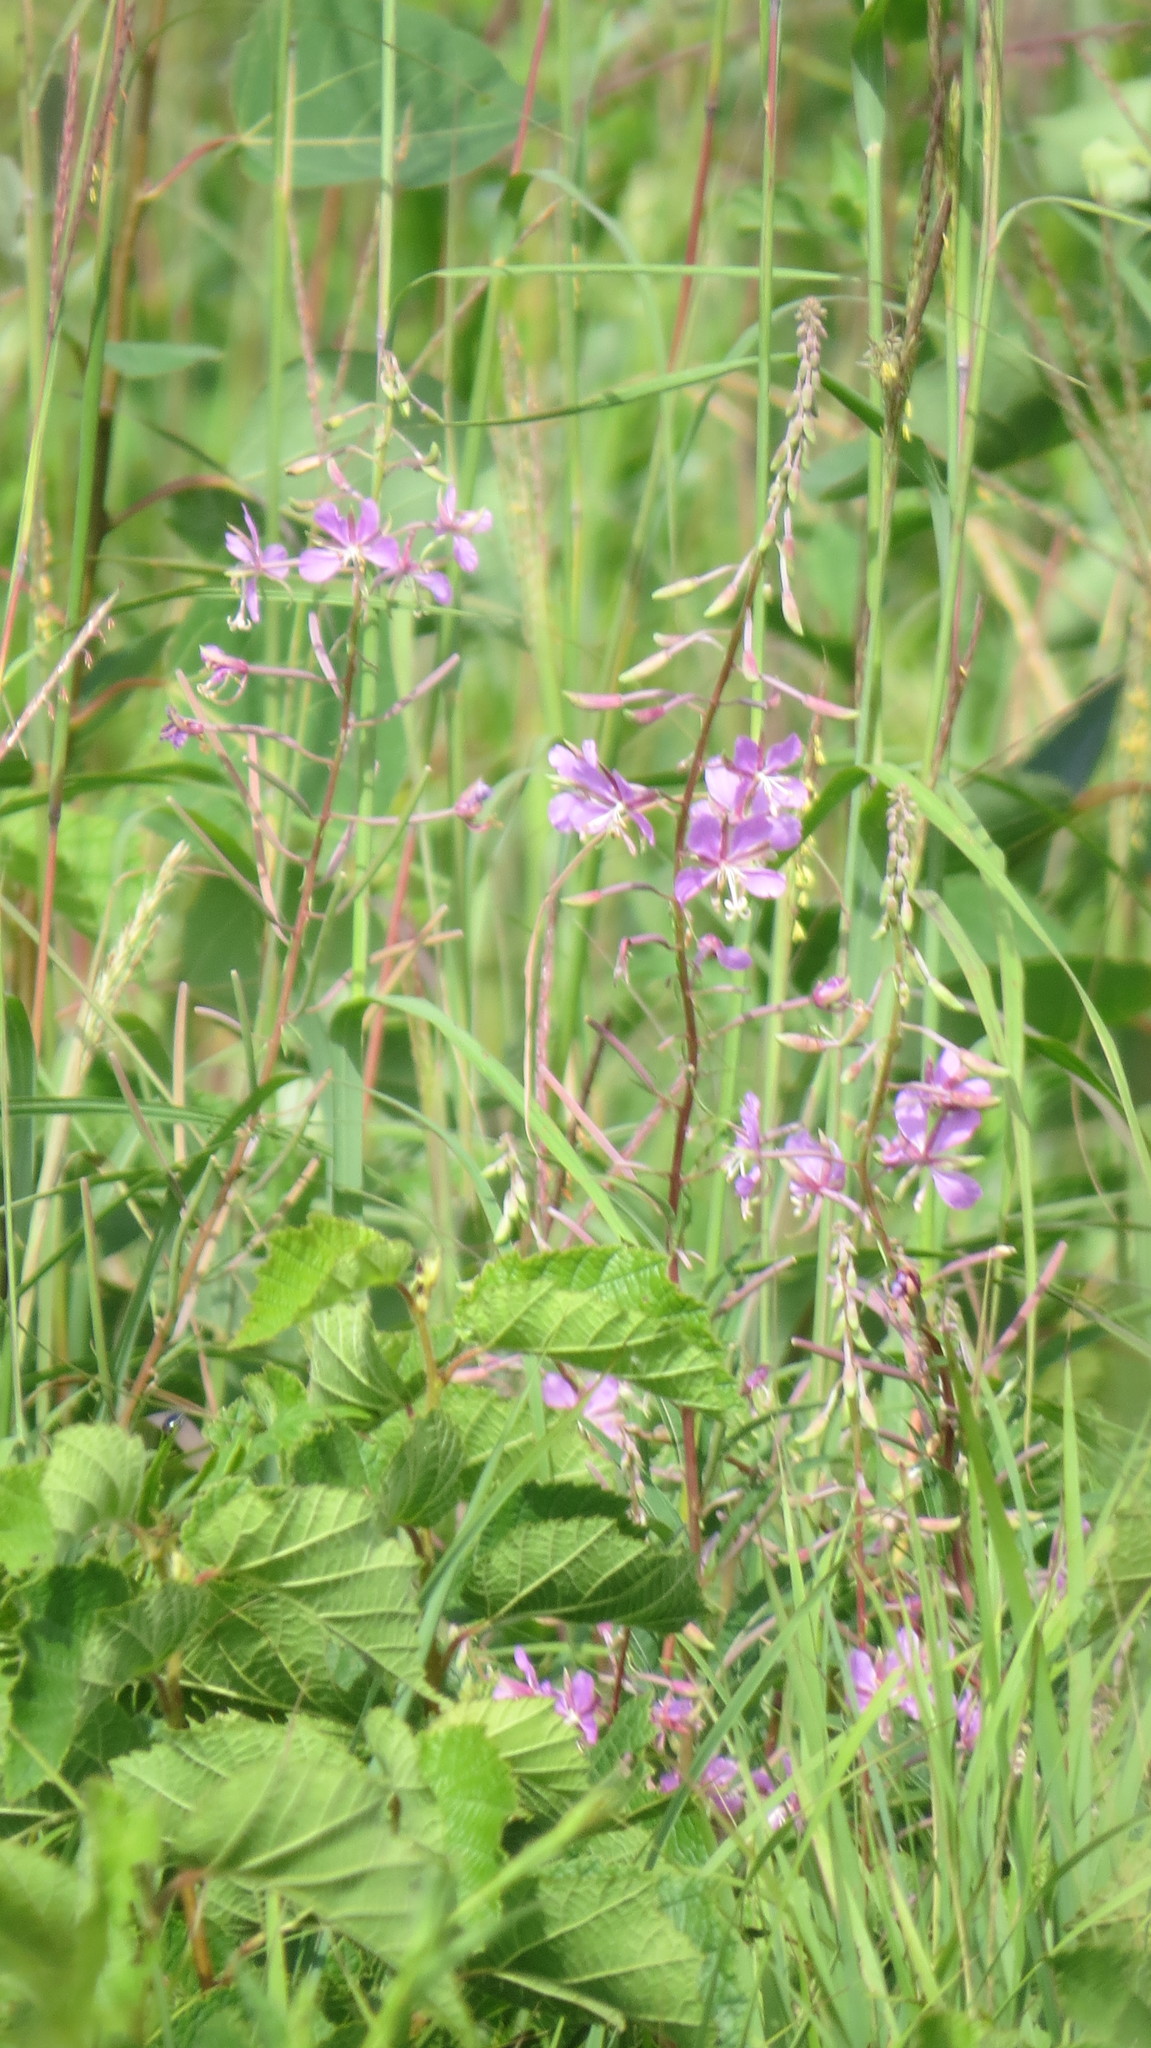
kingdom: Plantae
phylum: Tracheophyta
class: Magnoliopsida
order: Myrtales
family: Onagraceae
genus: Chamaenerion
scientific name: Chamaenerion angustifolium
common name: Fireweed
